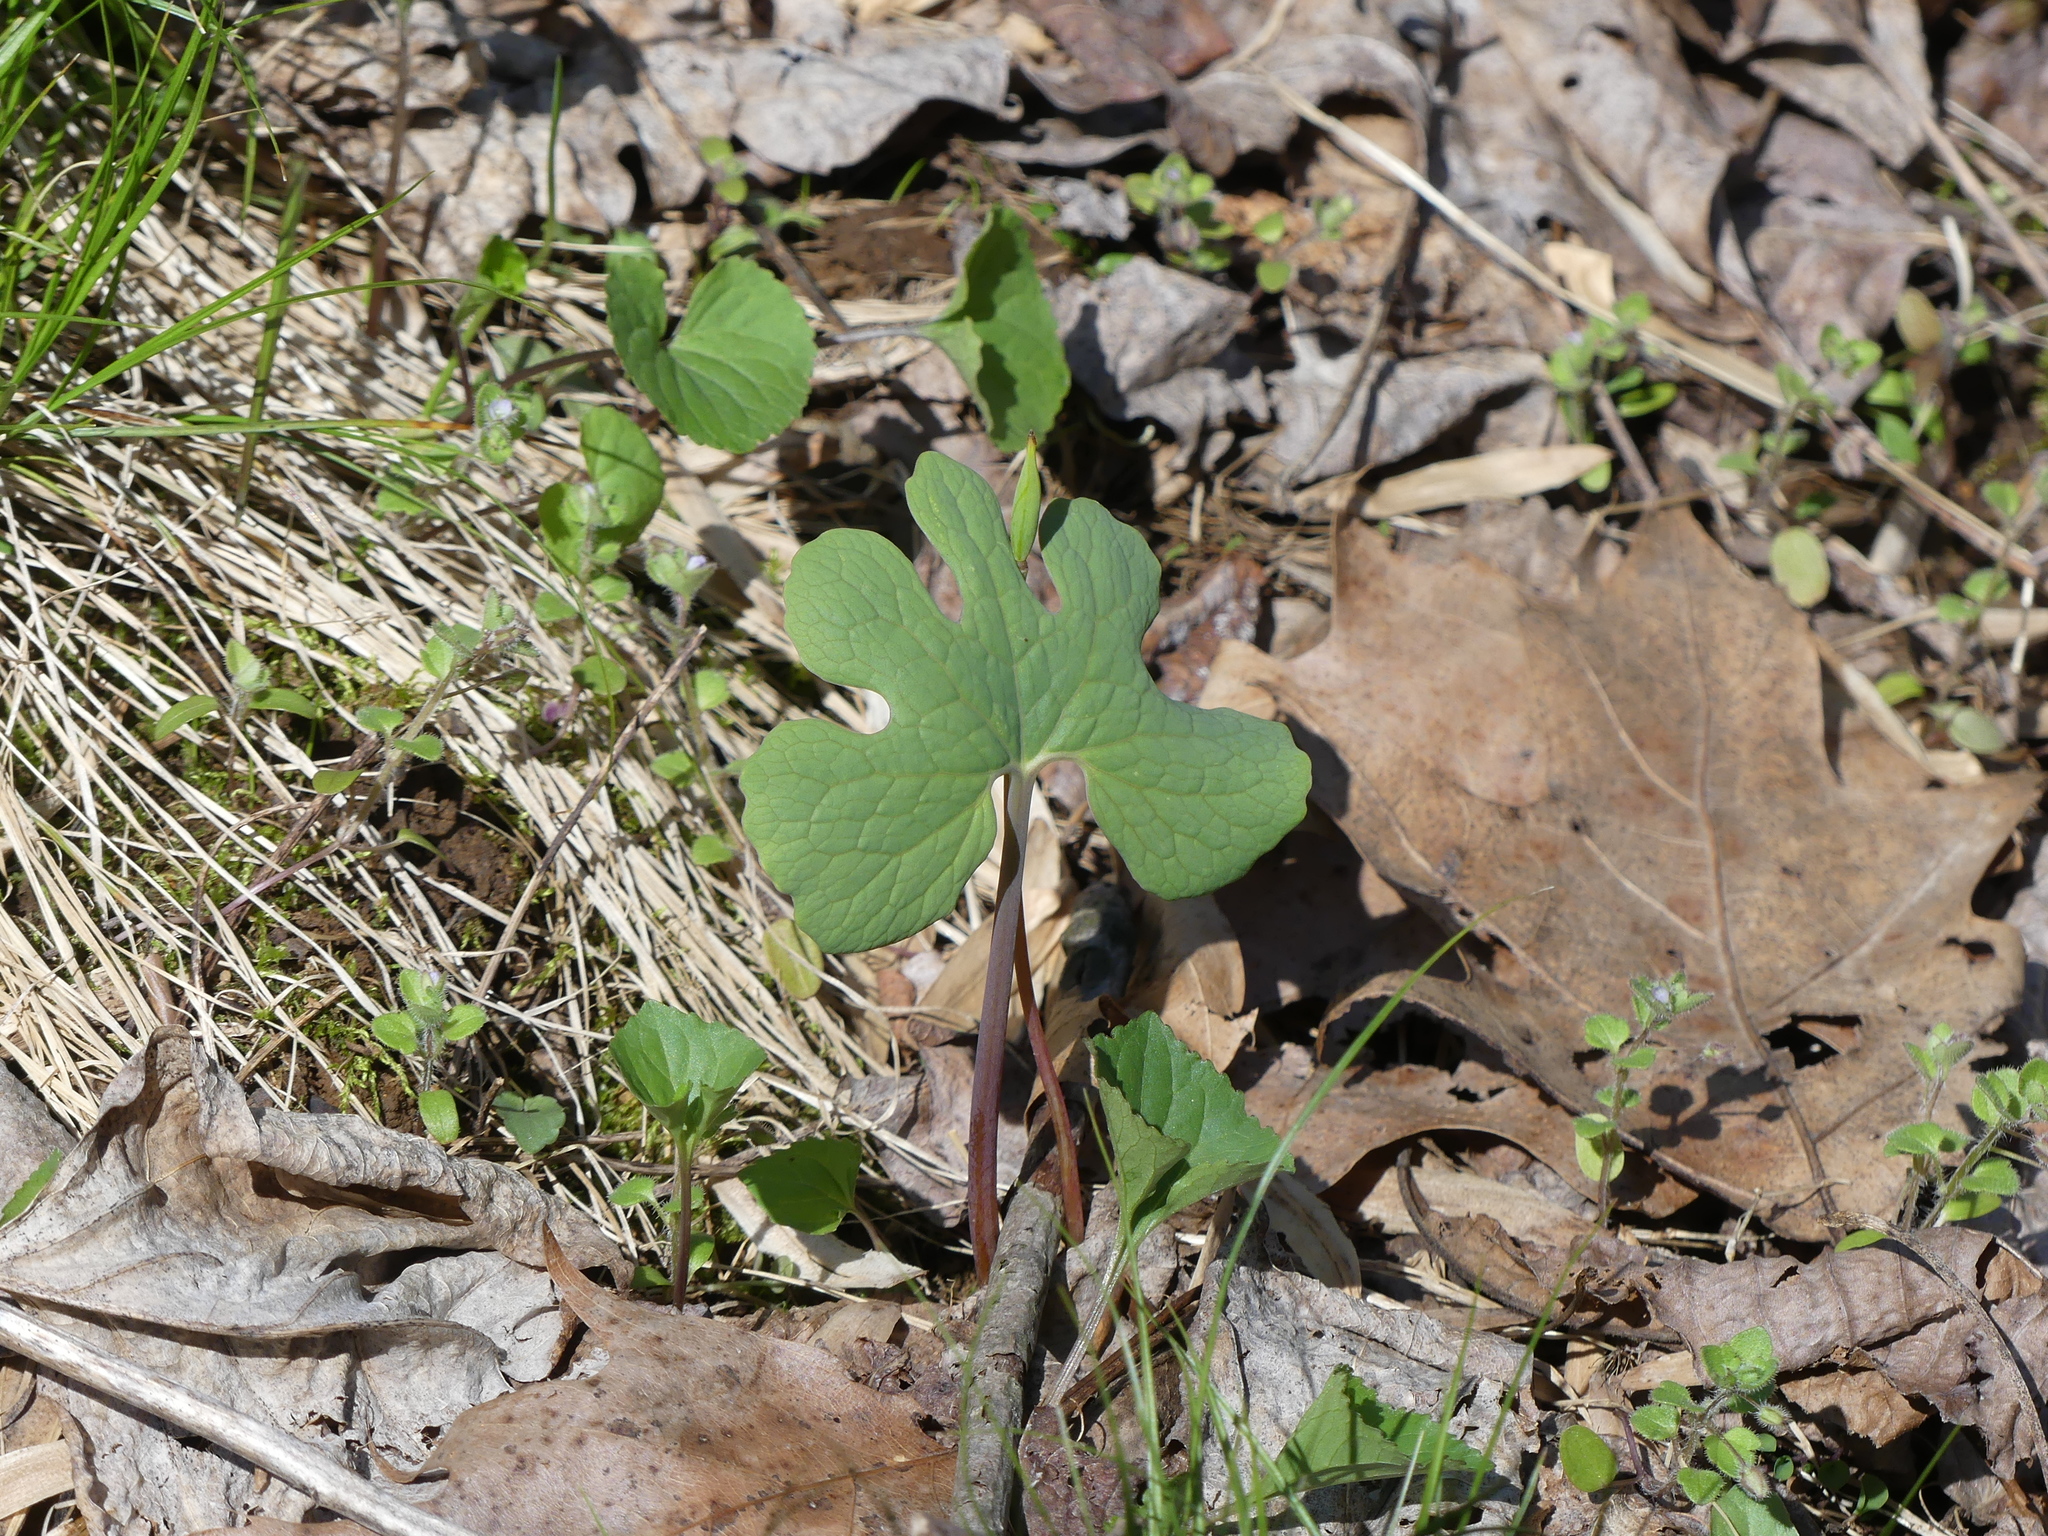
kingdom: Plantae
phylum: Tracheophyta
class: Magnoliopsida
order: Ranunculales
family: Papaveraceae
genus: Sanguinaria
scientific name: Sanguinaria canadensis
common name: Bloodroot
